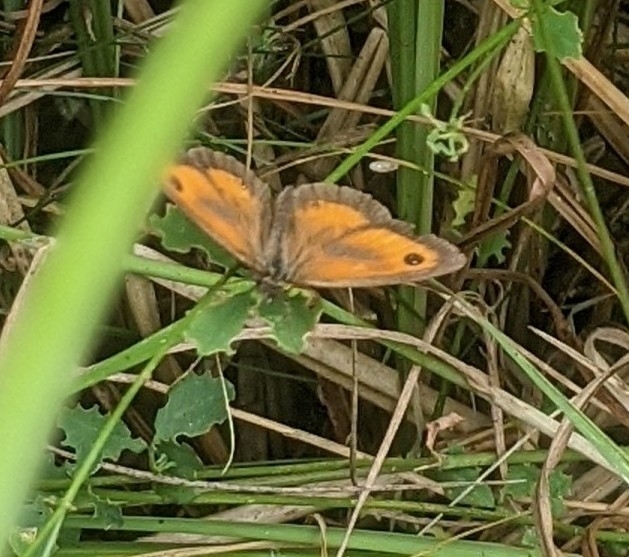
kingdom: Animalia
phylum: Arthropoda
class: Insecta
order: Lepidoptera
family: Nymphalidae
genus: Pyronia
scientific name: Pyronia tithonus
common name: Gatekeeper
